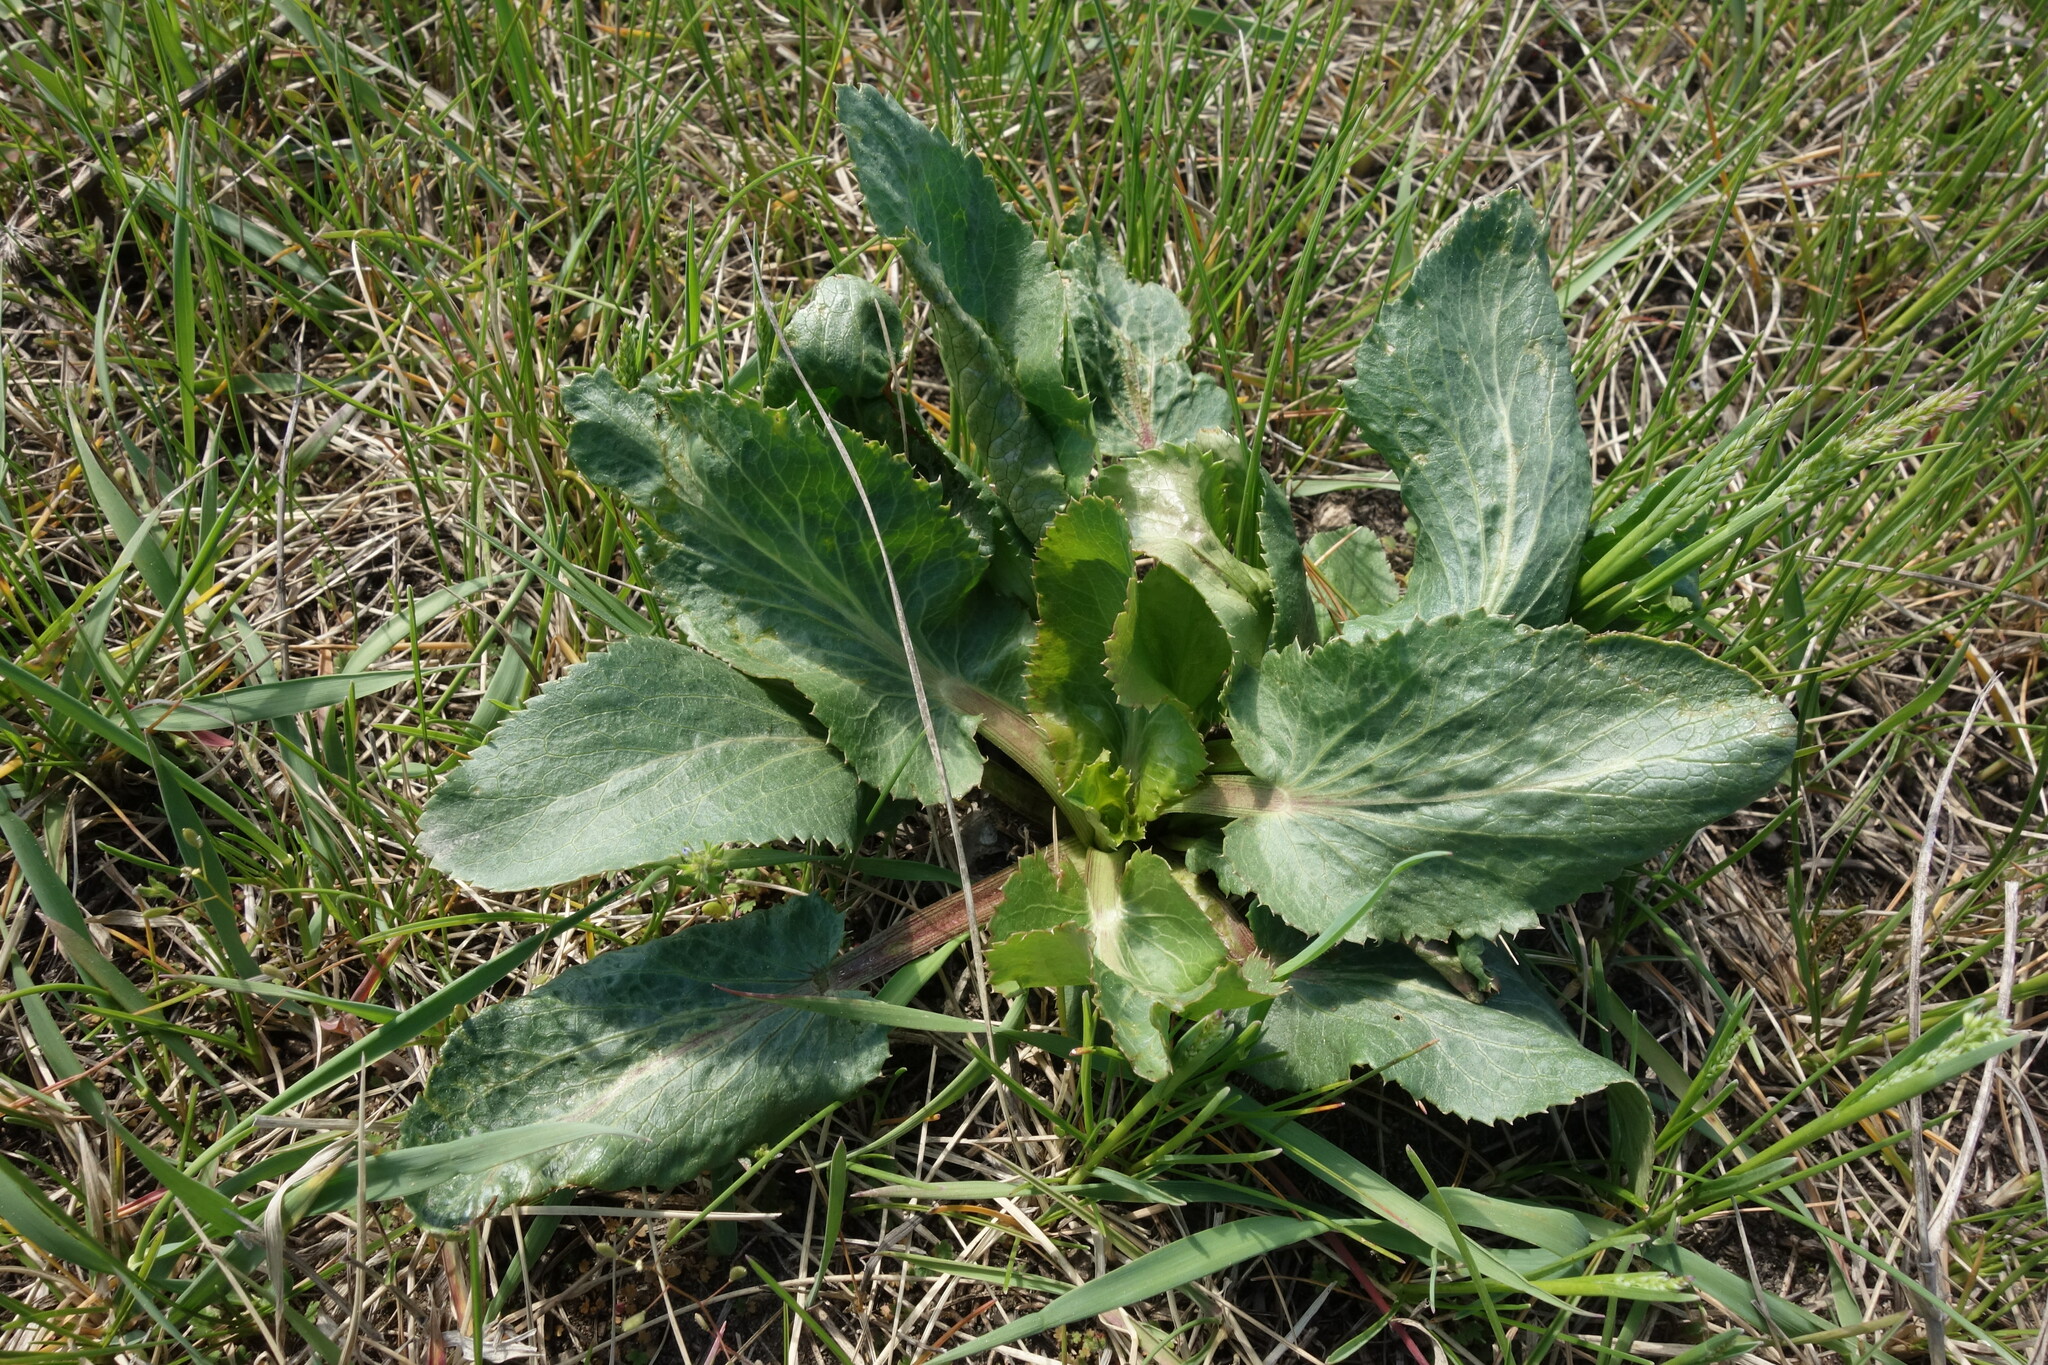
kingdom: Plantae
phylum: Tracheophyta
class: Magnoliopsida
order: Apiales
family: Apiaceae
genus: Eryngium
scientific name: Eryngium planum
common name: Blue eryngo
